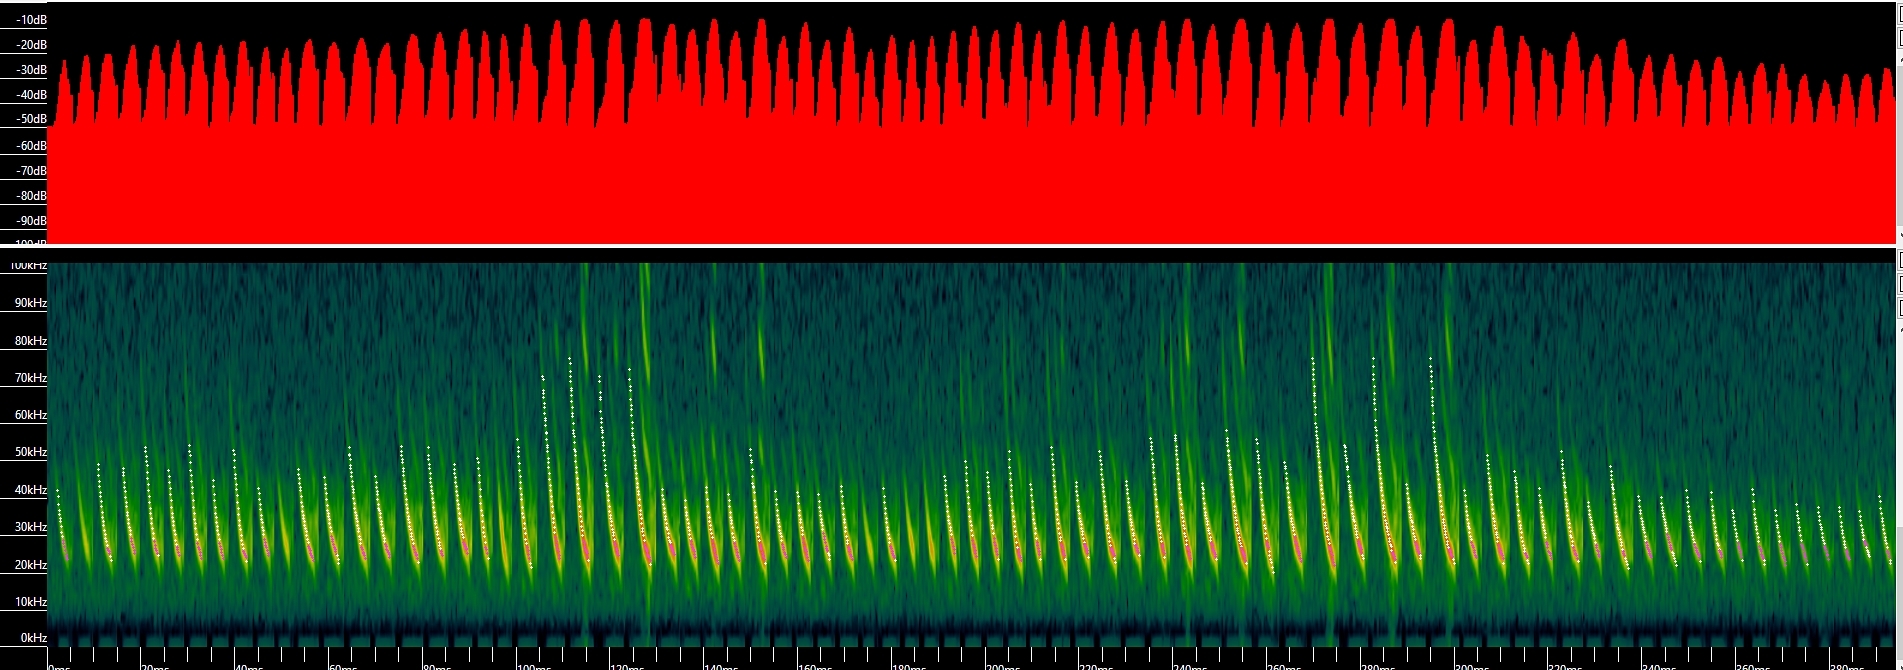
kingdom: Animalia
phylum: Chordata
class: Mammalia
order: Chiroptera
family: Vespertilionidae
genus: Myotis
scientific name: Myotis thysanodes
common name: Fringed myotis
